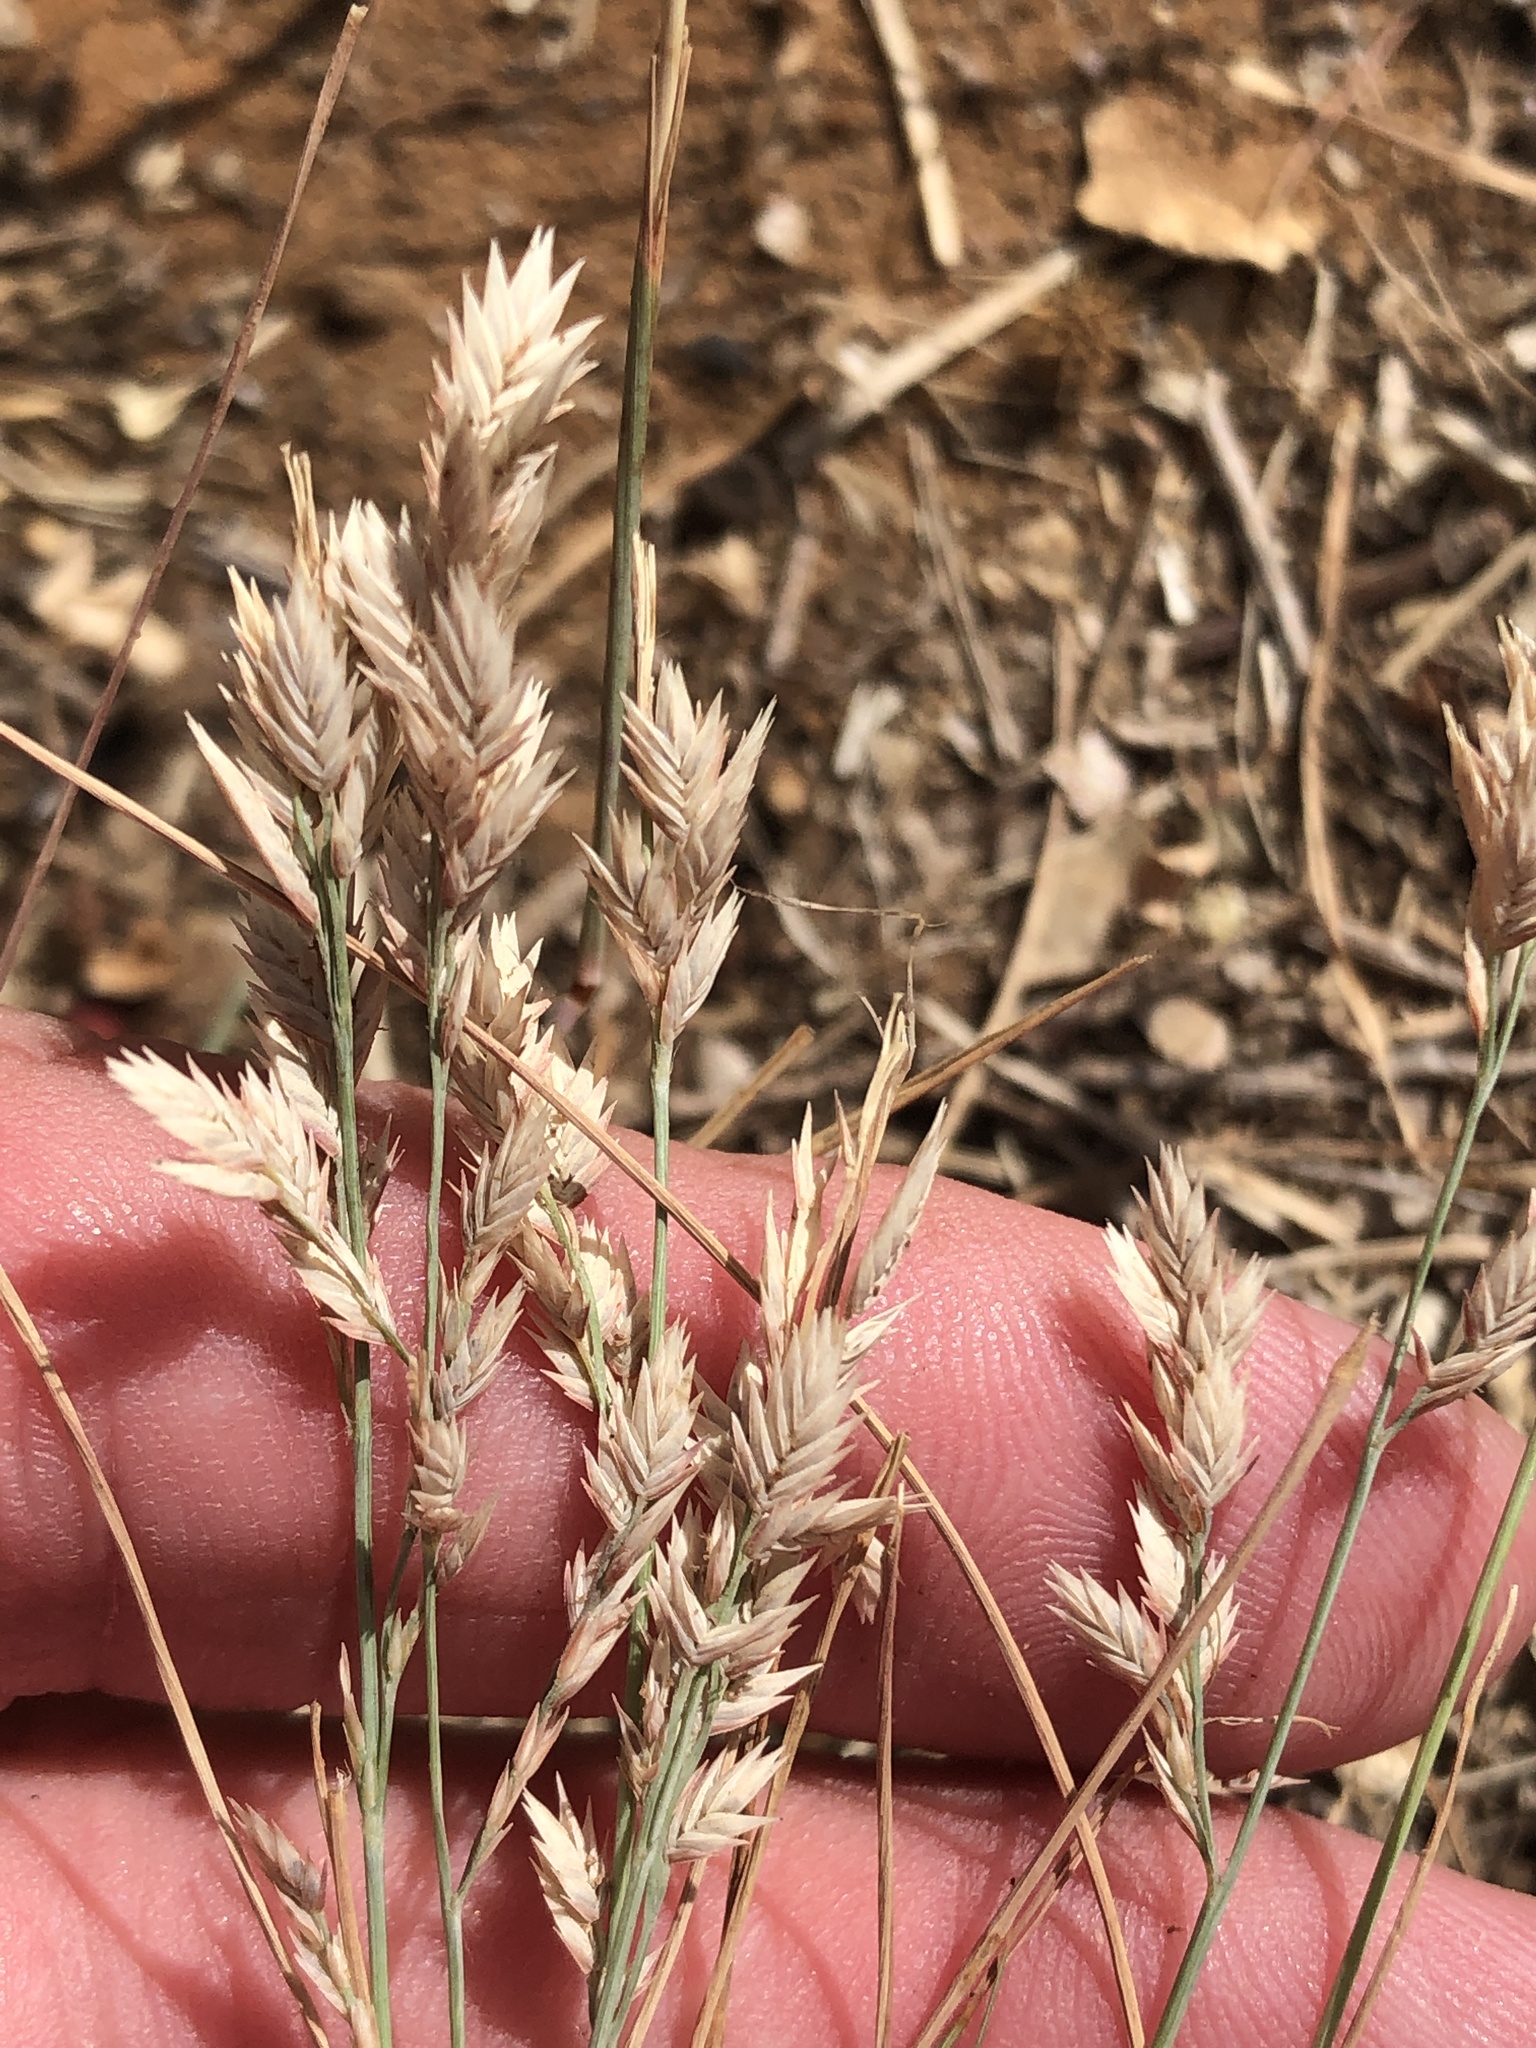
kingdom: Plantae
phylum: Tracheophyta
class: Liliopsida
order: Poales
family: Poaceae
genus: Eragrostis
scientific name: Eragrostis secundiflora
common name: Red love grass
